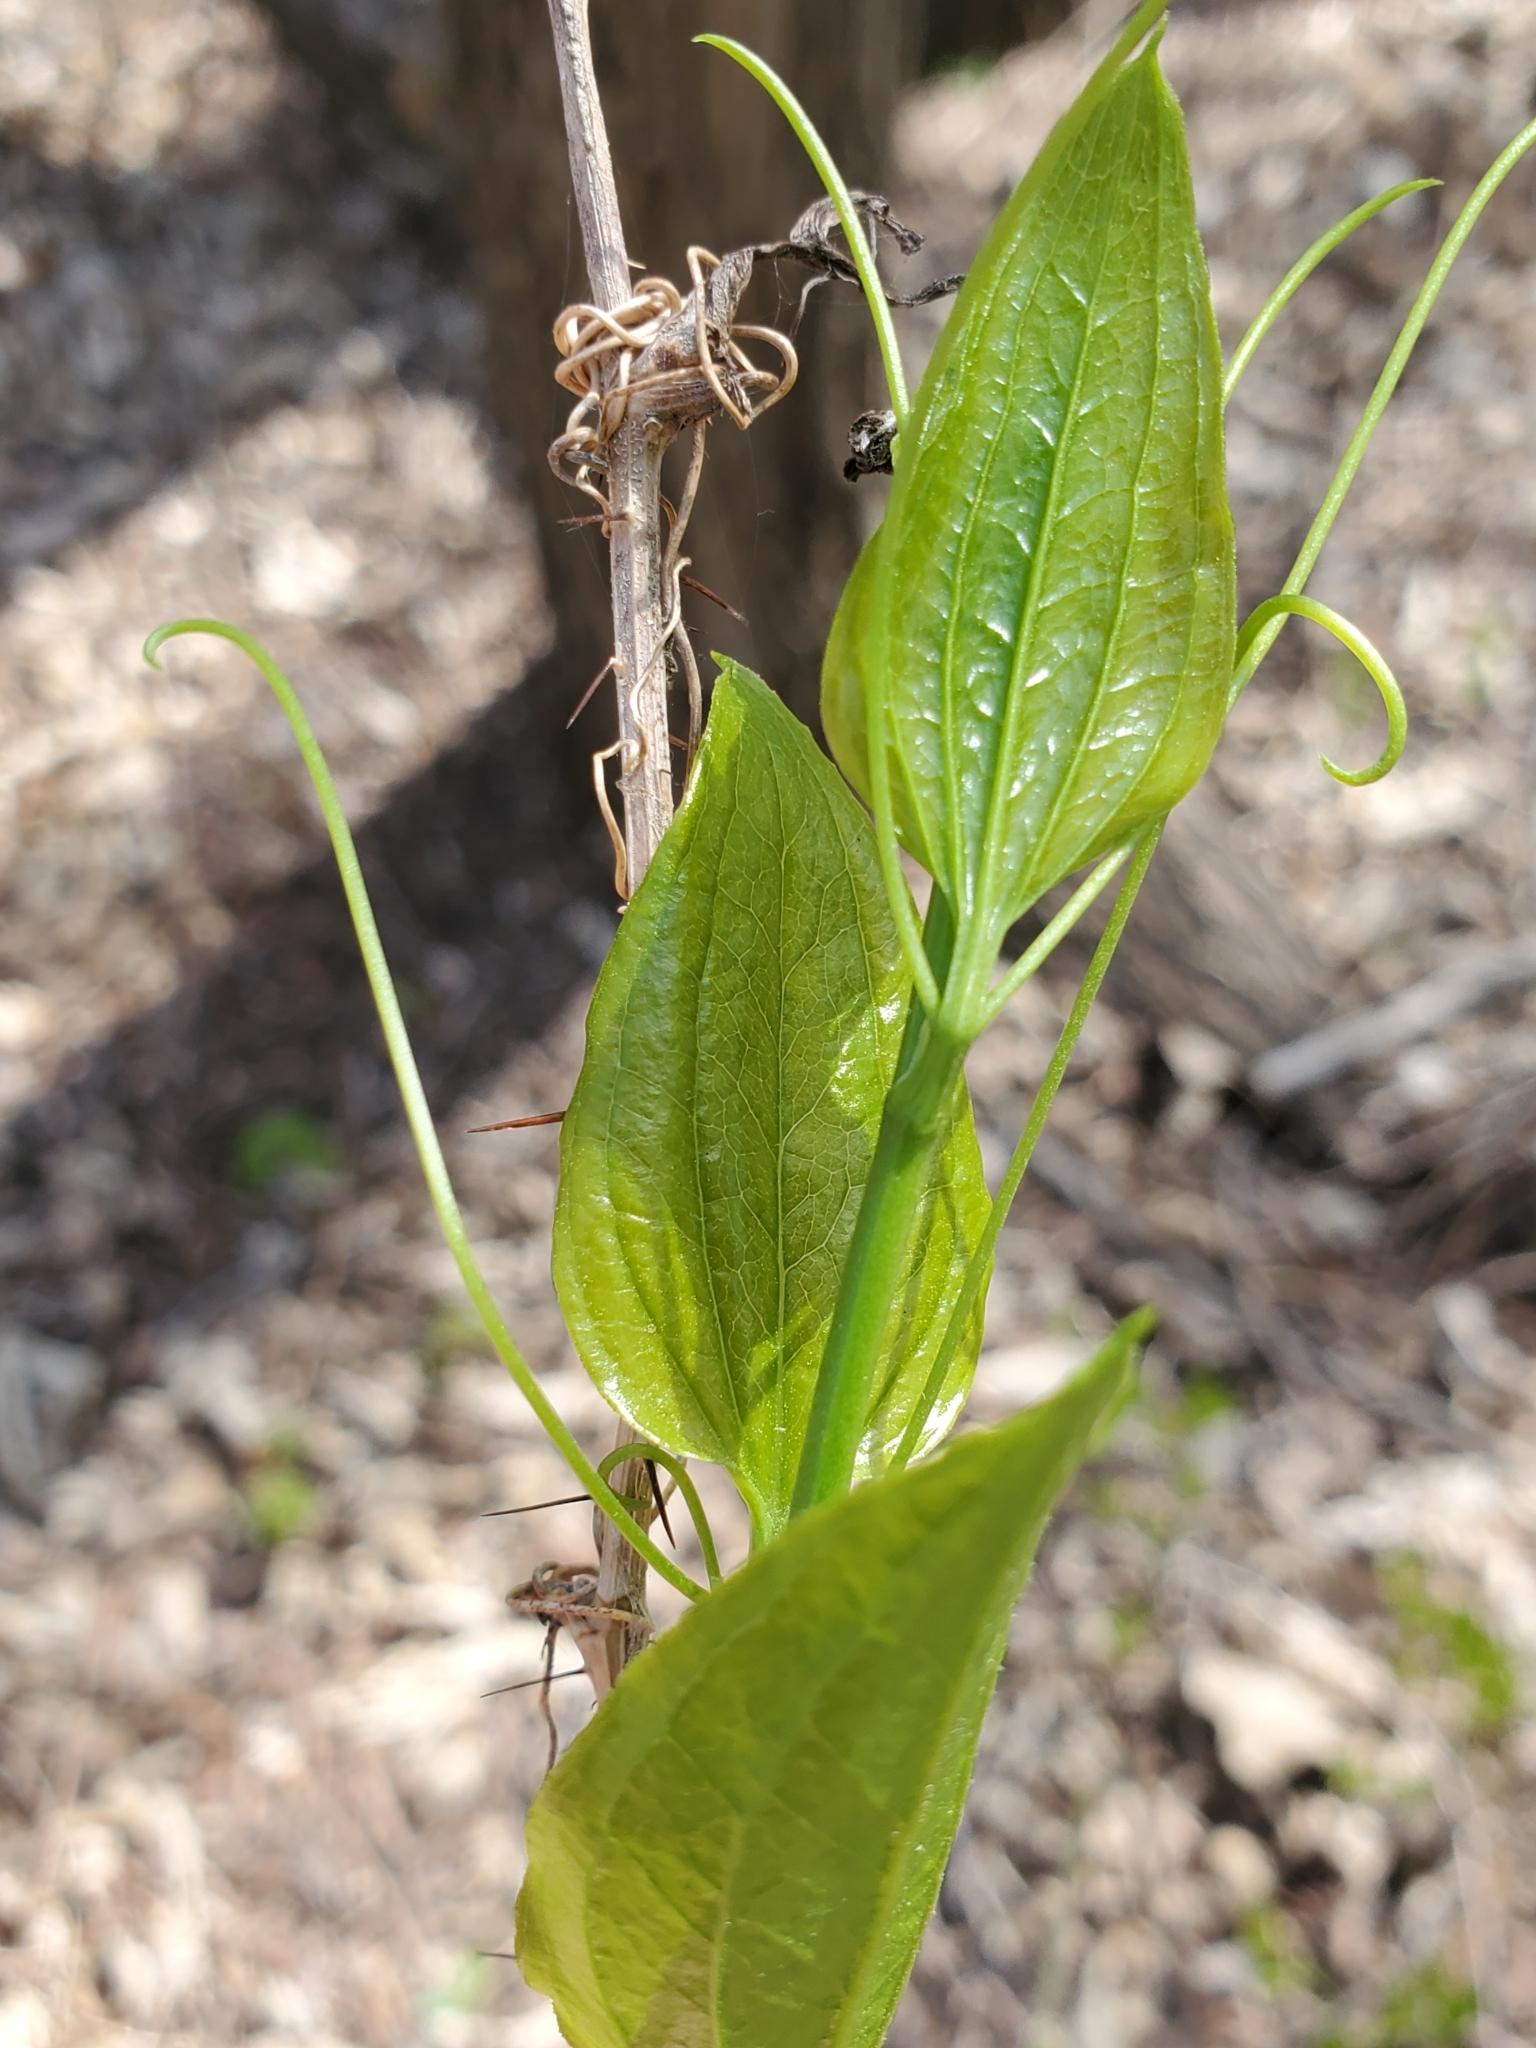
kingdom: Plantae
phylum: Tracheophyta
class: Liliopsida
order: Liliales
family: Smilacaceae
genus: Smilax
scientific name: Smilax tamnoides
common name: Hellfetter
